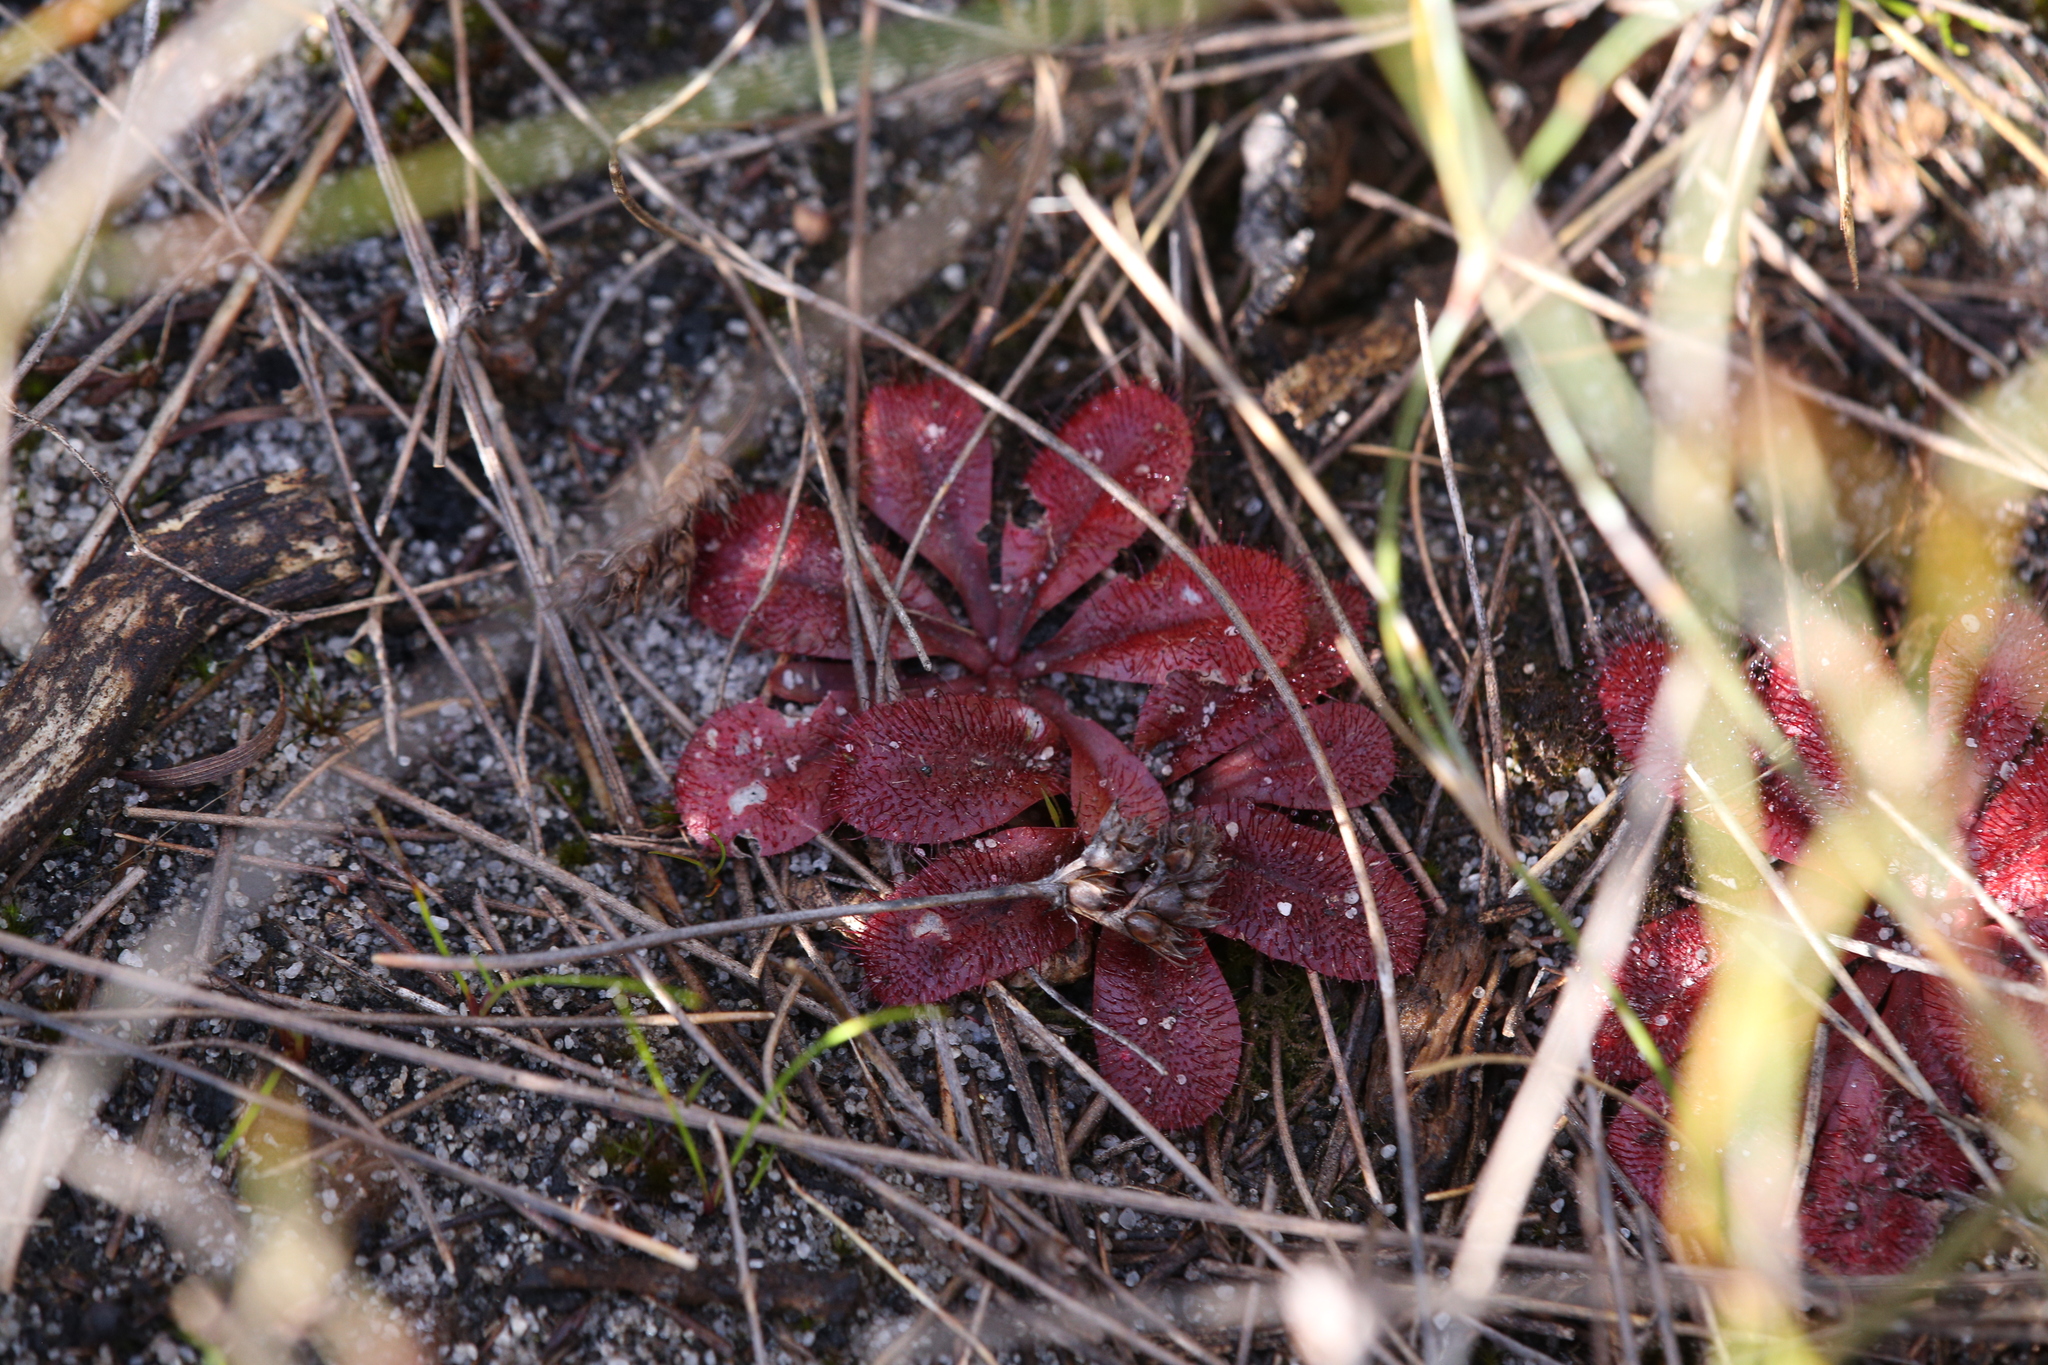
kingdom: Plantae
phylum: Tracheophyta
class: Magnoliopsida
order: Caryophyllales
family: Droseraceae
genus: Drosera
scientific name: Drosera rosulata
